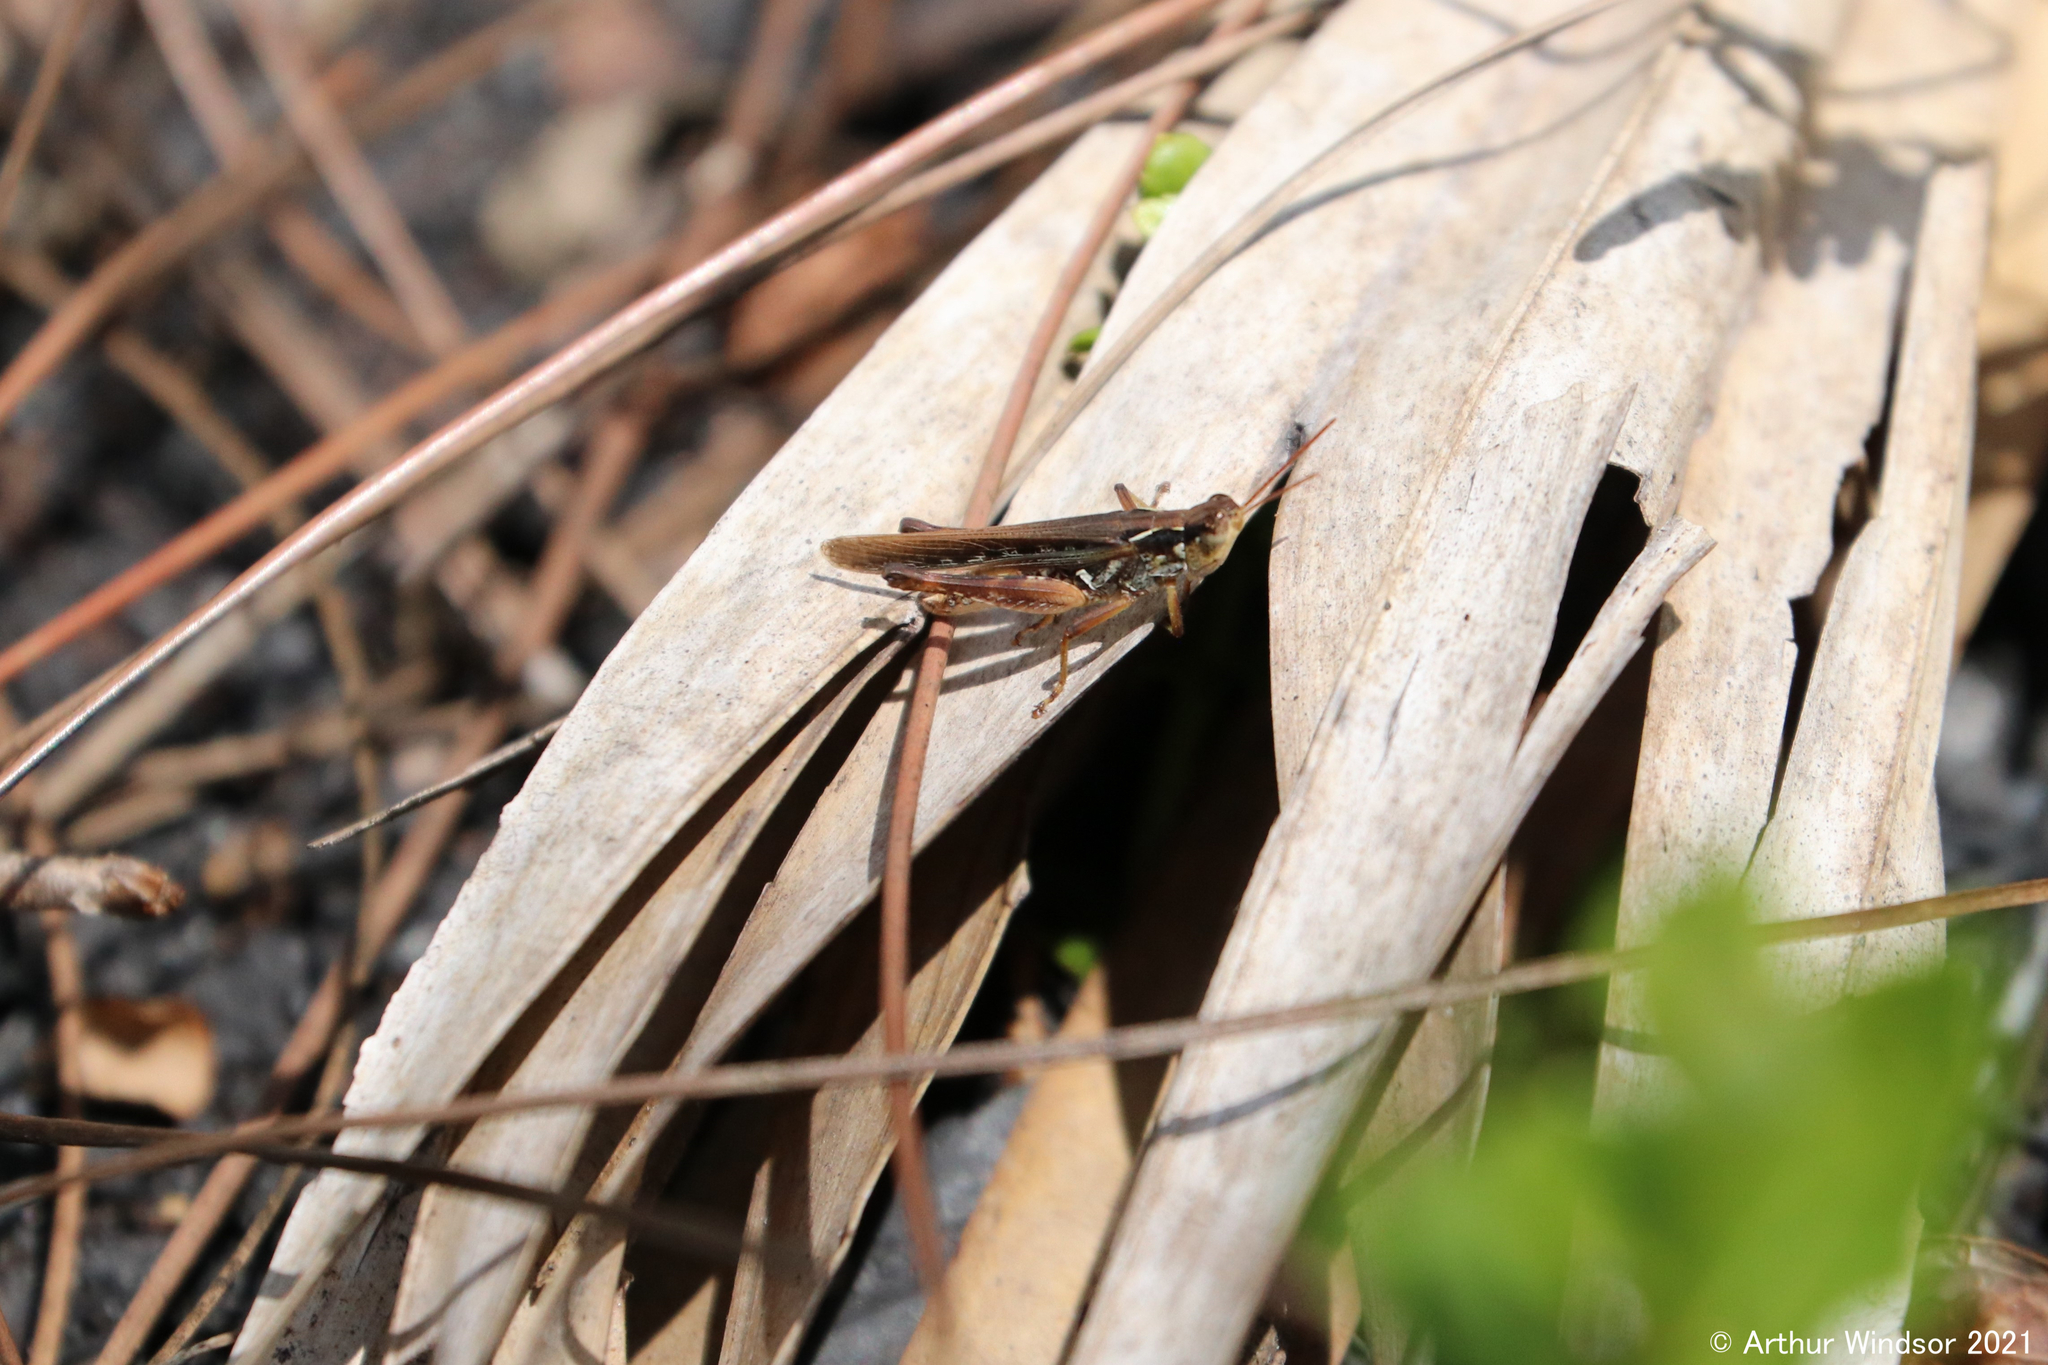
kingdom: Animalia
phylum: Arthropoda
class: Insecta
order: Orthoptera
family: Acrididae
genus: Orphulella
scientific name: Orphulella pelidna
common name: Spotted-wing grasshopper
